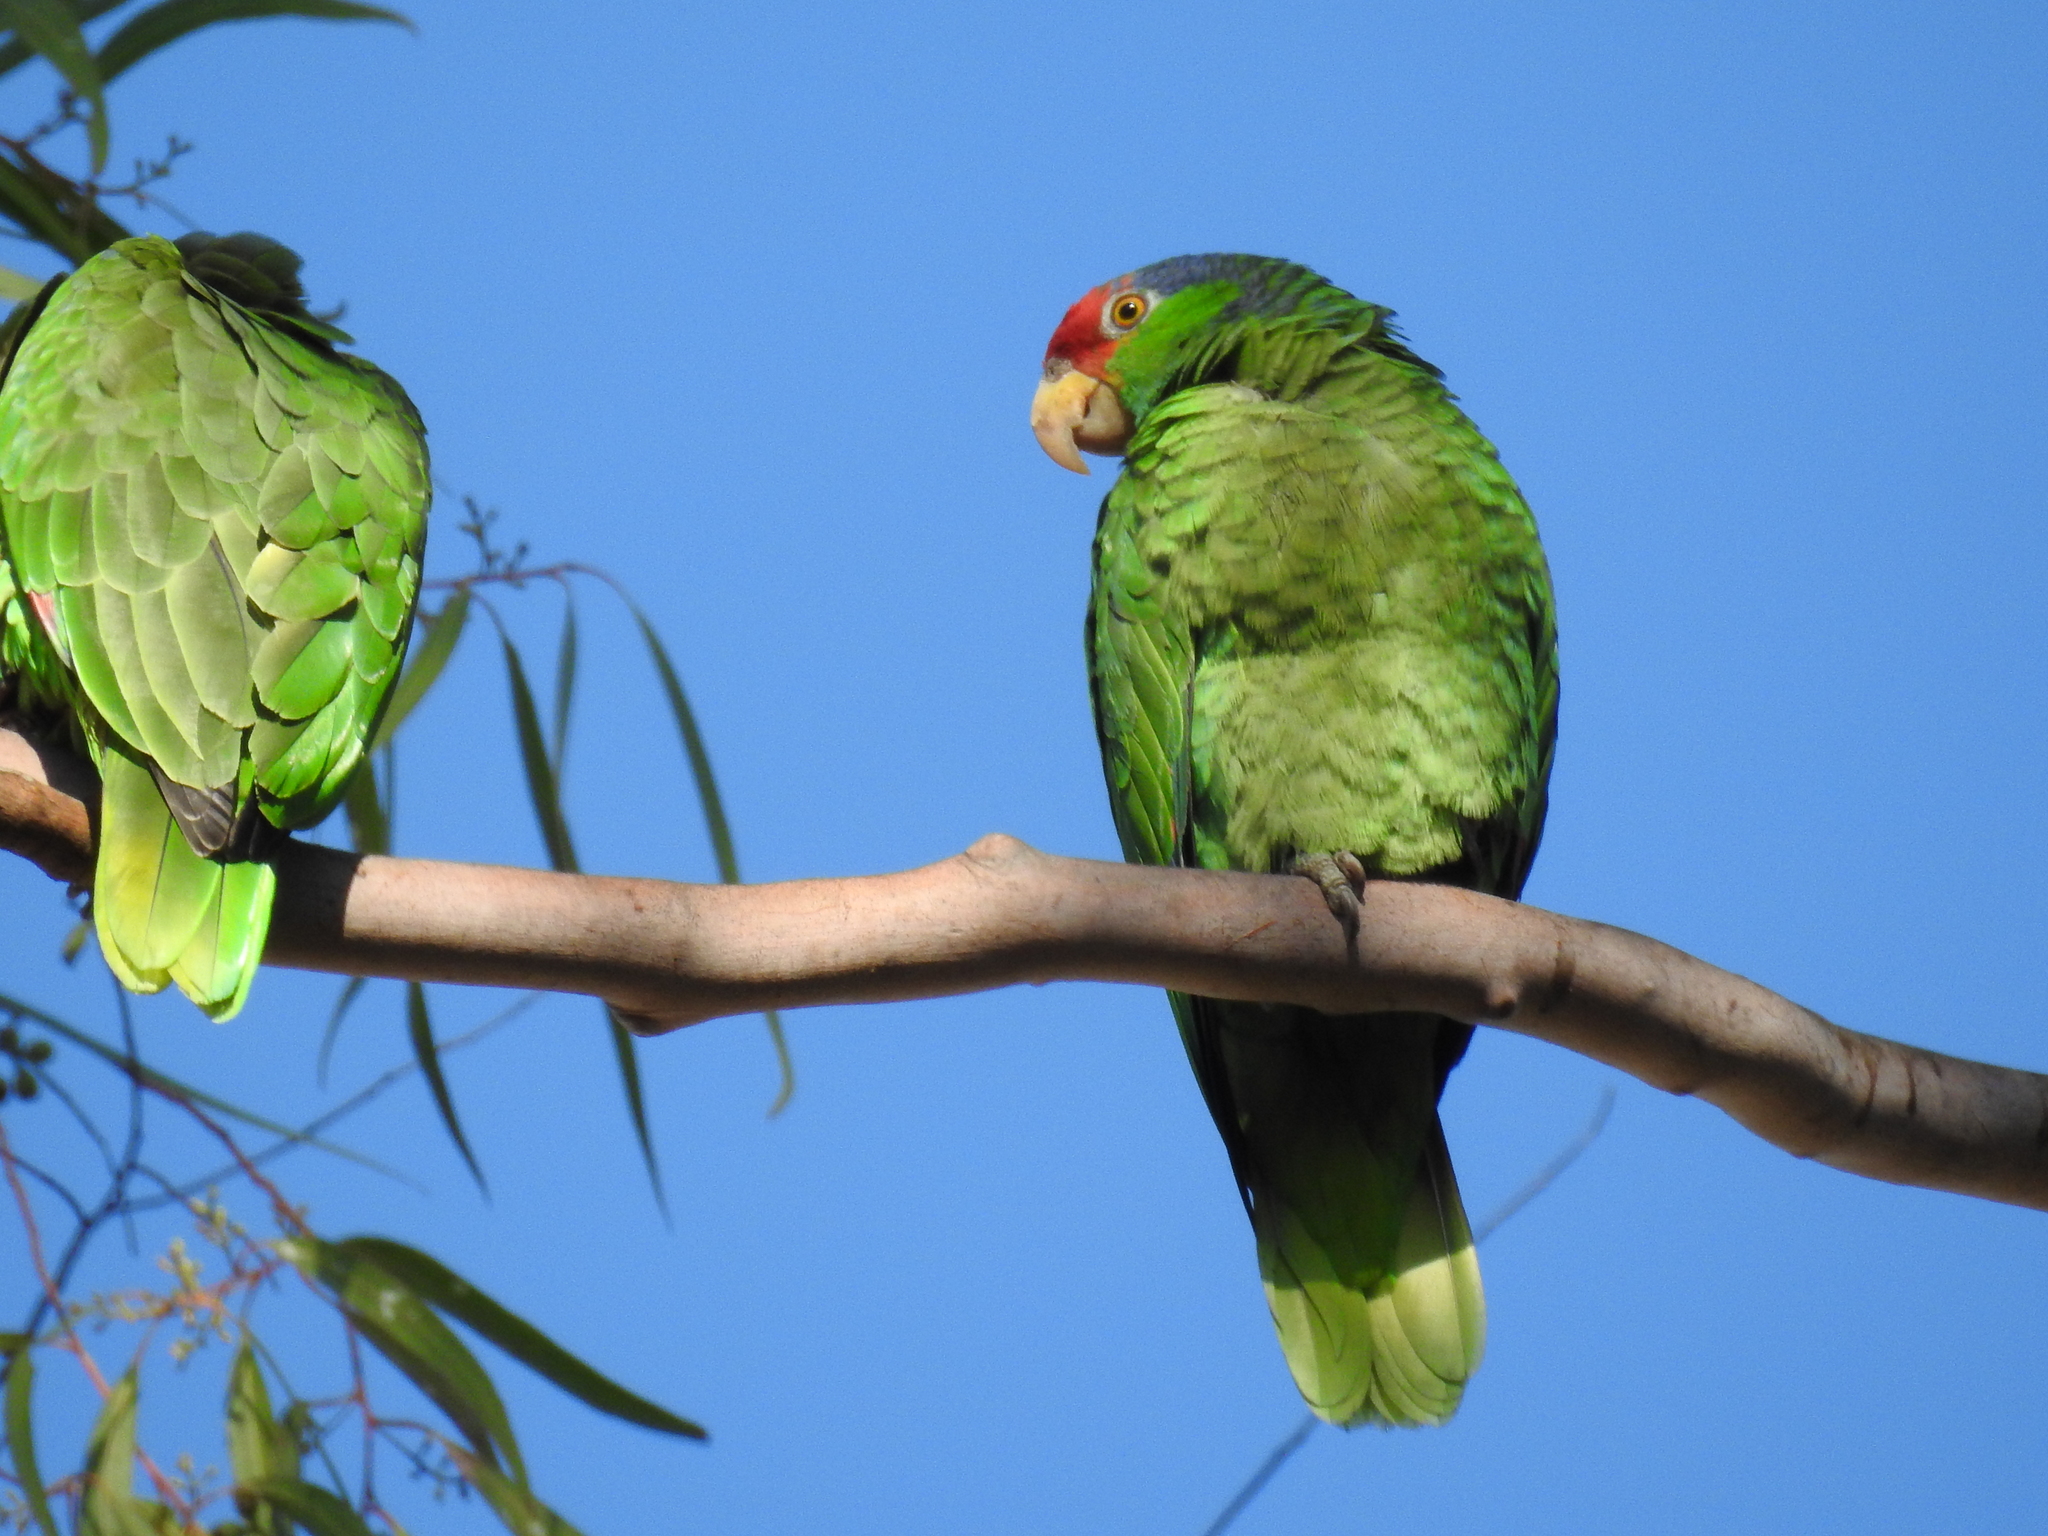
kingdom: Animalia
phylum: Chordata
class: Aves
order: Psittaciformes
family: Psittacidae
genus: Amazona
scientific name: Amazona viridigenalis
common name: Red-crowned amazon
